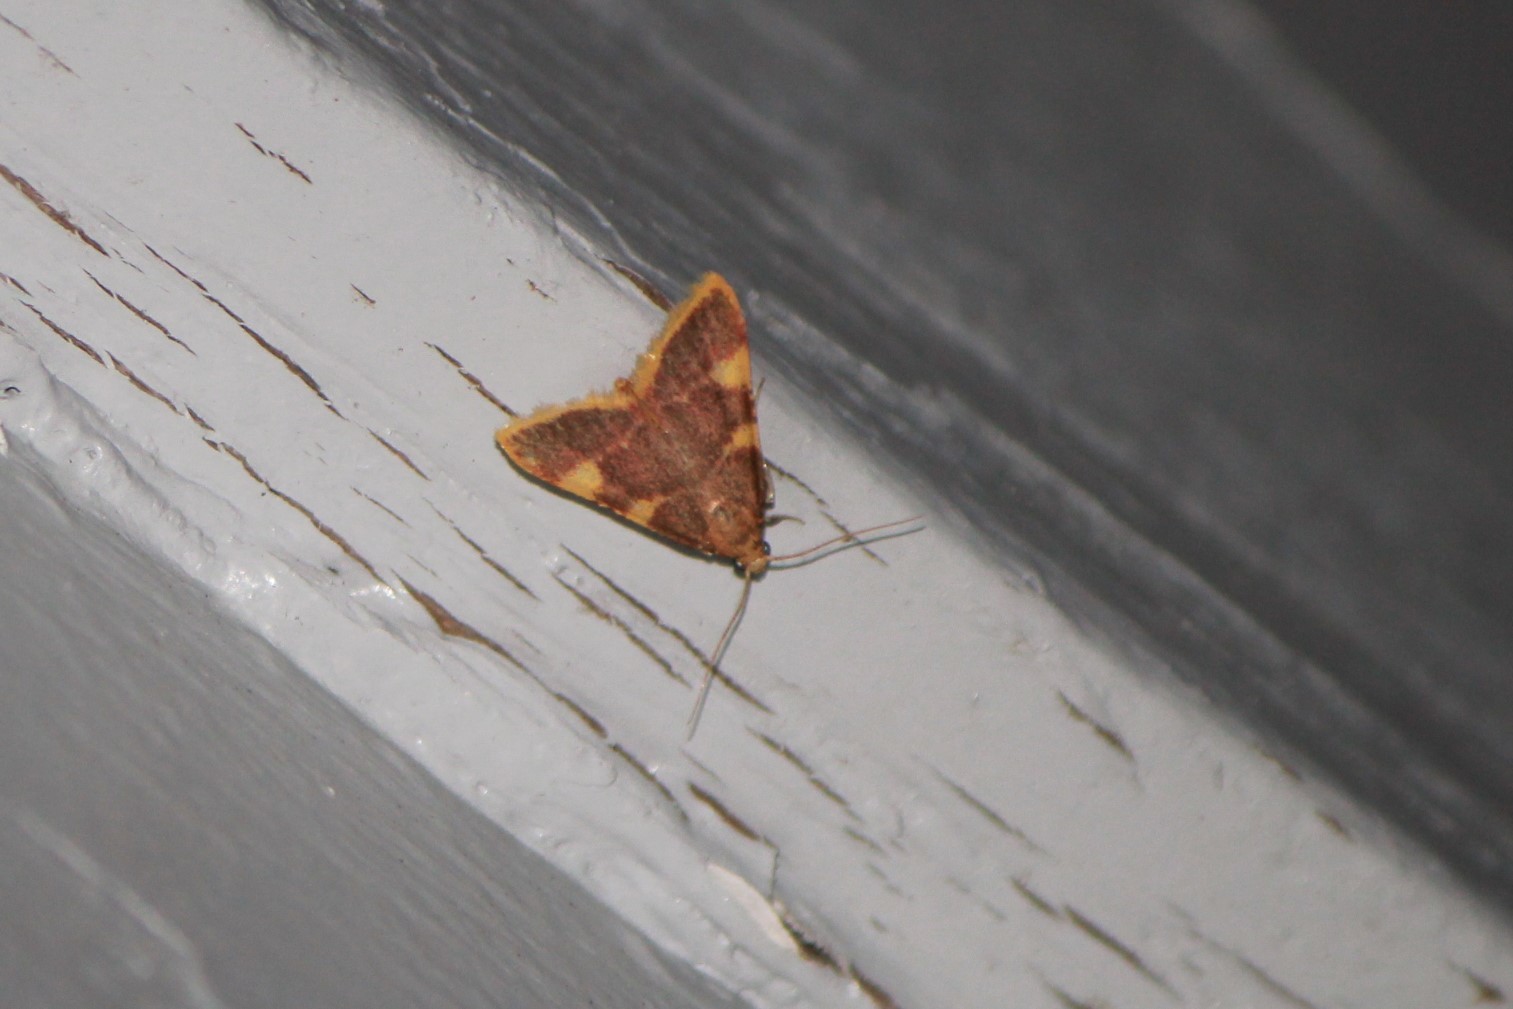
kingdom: Animalia
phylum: Arthropoda
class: Insecta
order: Lepidoptera
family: Pyralidae
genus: Hypsopygia
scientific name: Hypsopygia costalis
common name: Gold triangle
